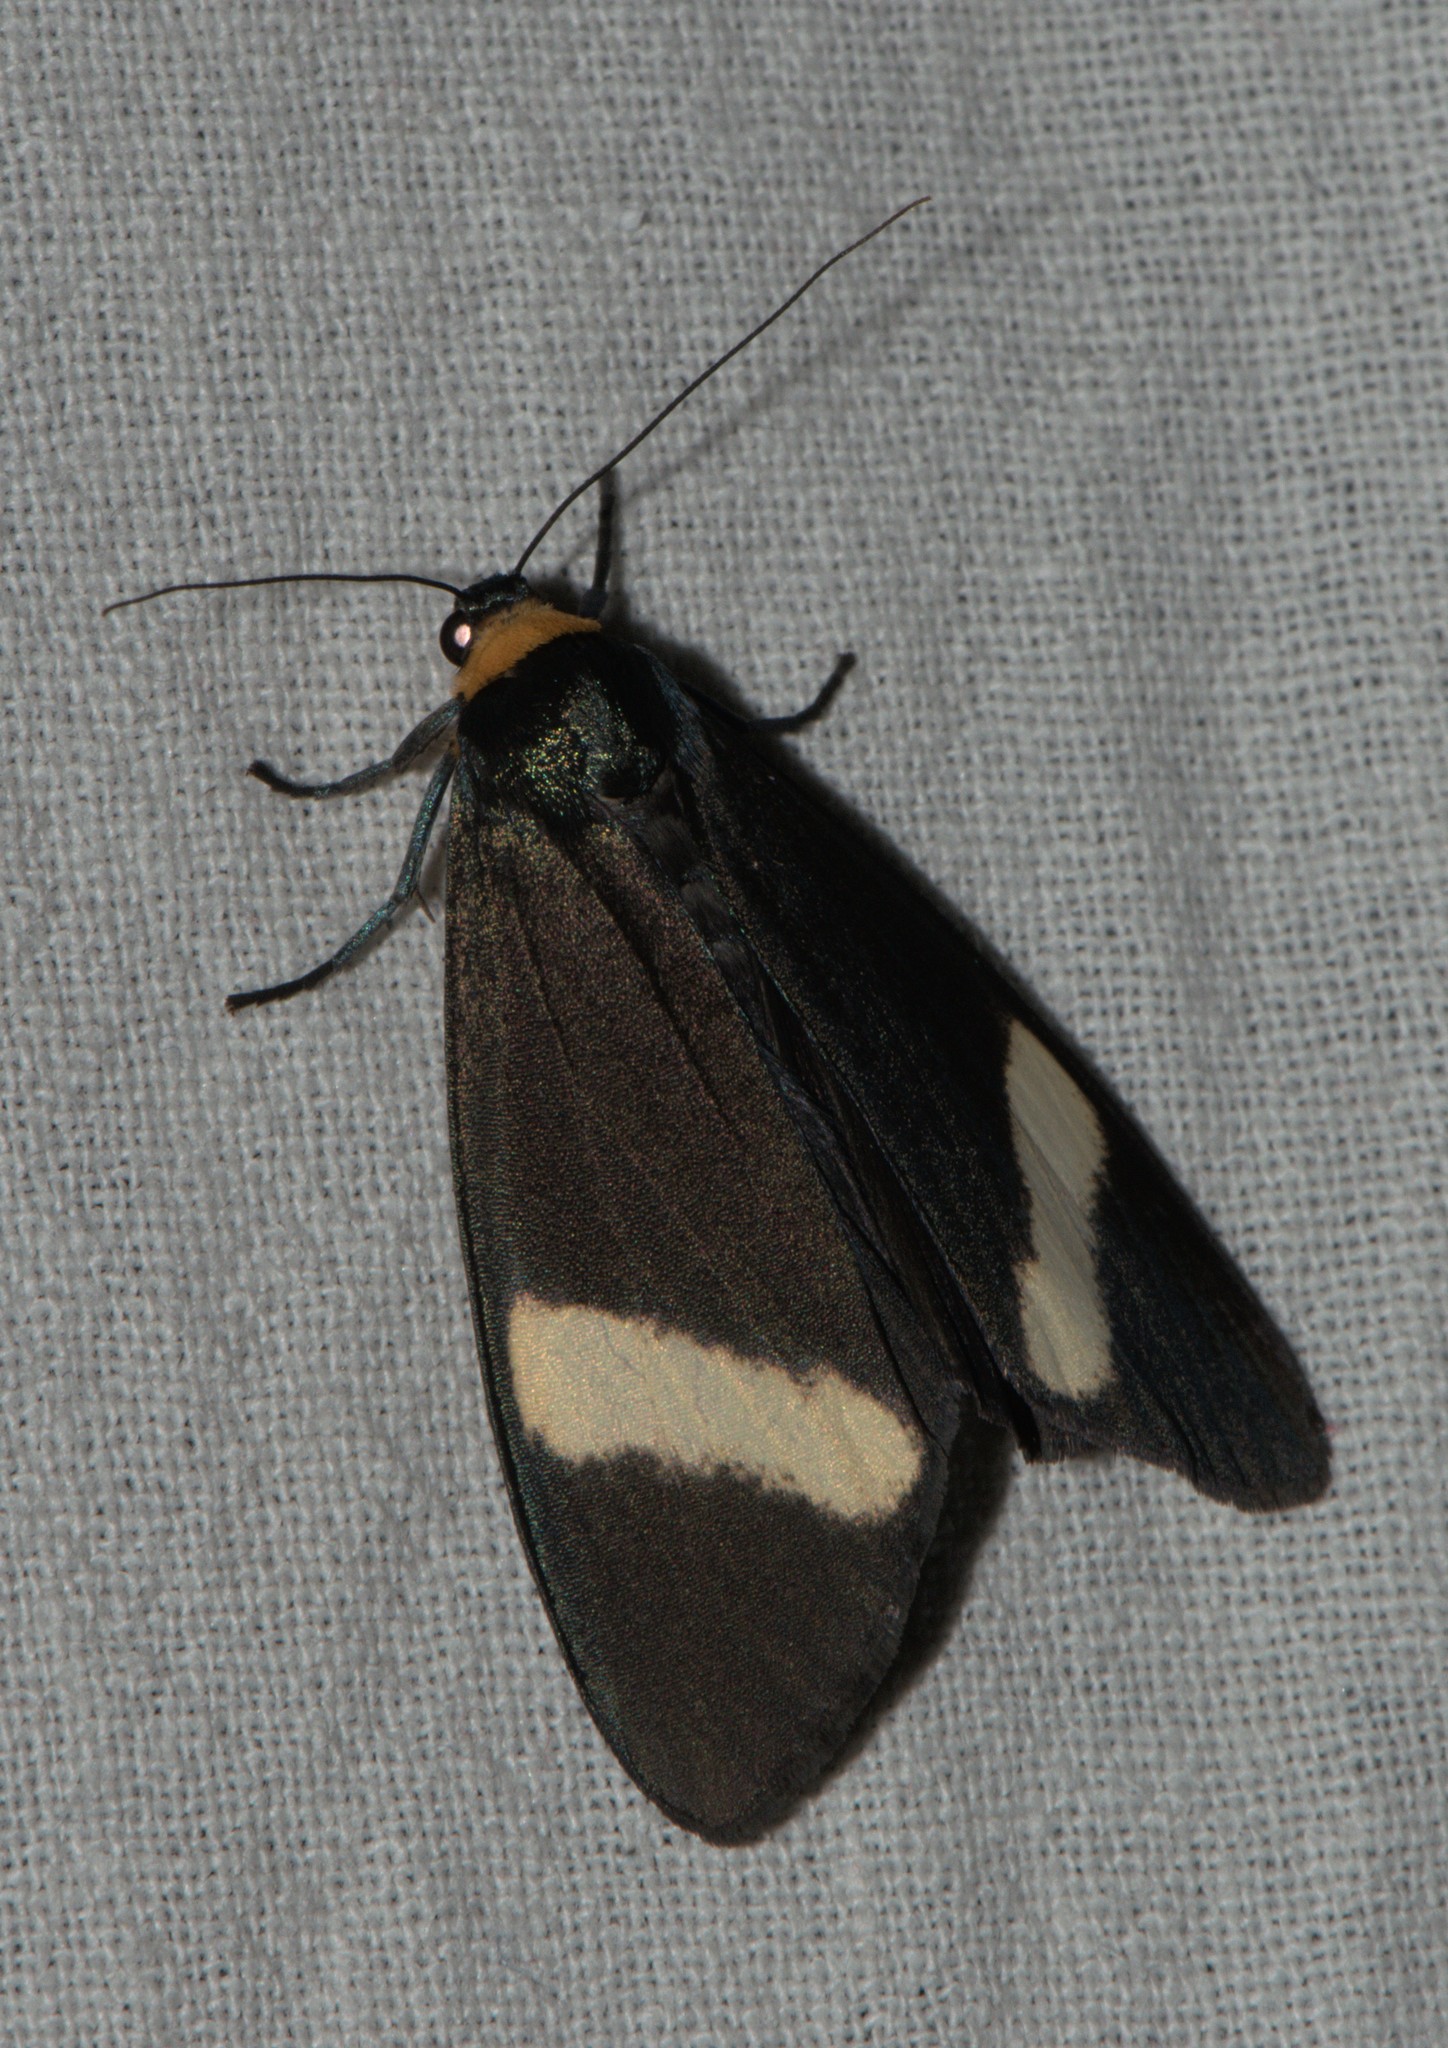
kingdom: Animalia
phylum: Arthropoda
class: Insecta
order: Lepidoptera
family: Erebidae
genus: Macrobrochis
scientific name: Macrobrochis albifascia
